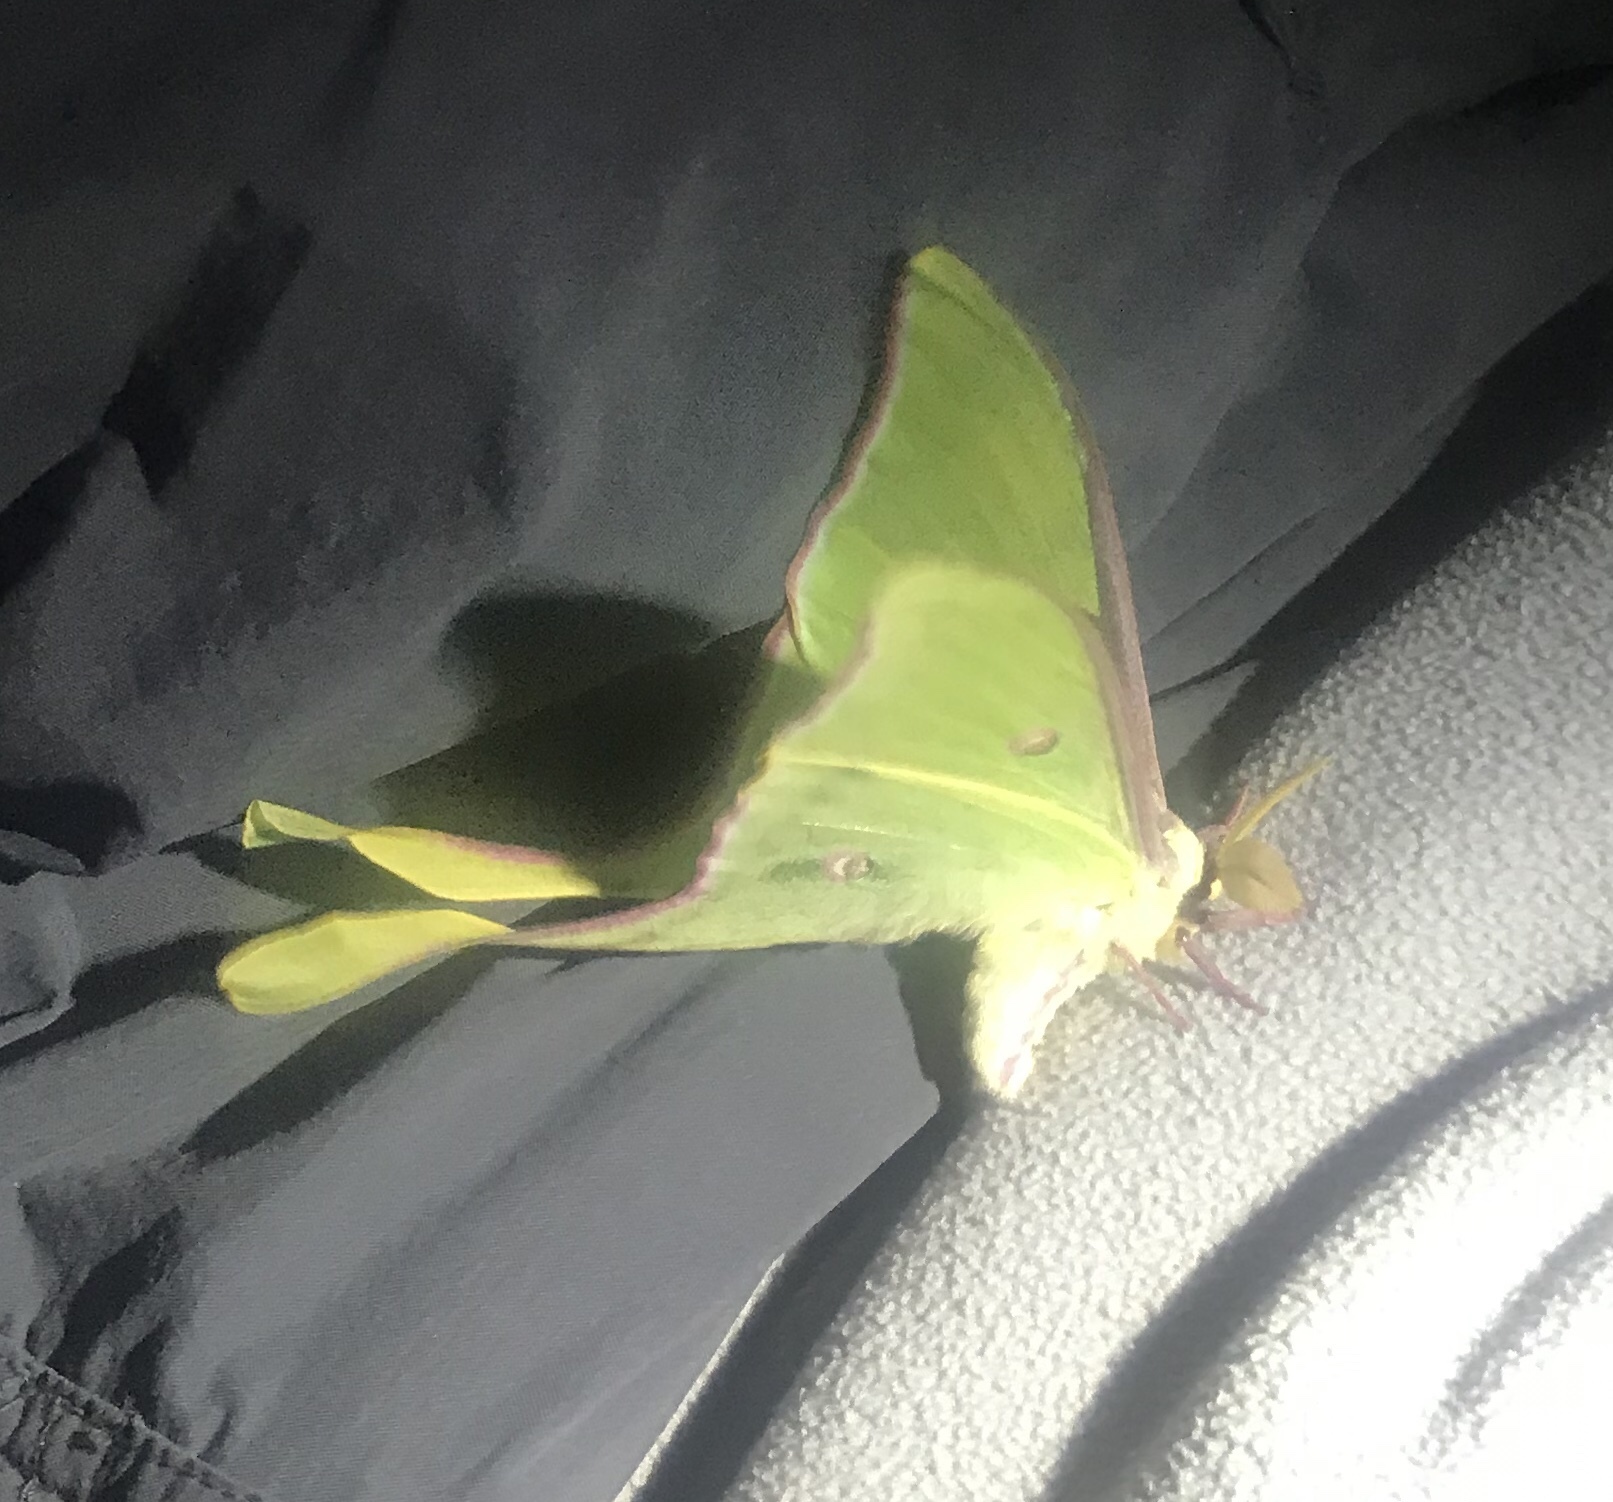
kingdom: Animalia
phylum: Arthropoda
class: Insecta
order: Lepidoptera
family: Saturniidae
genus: Actias
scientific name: Actias luna
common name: Luna moth
